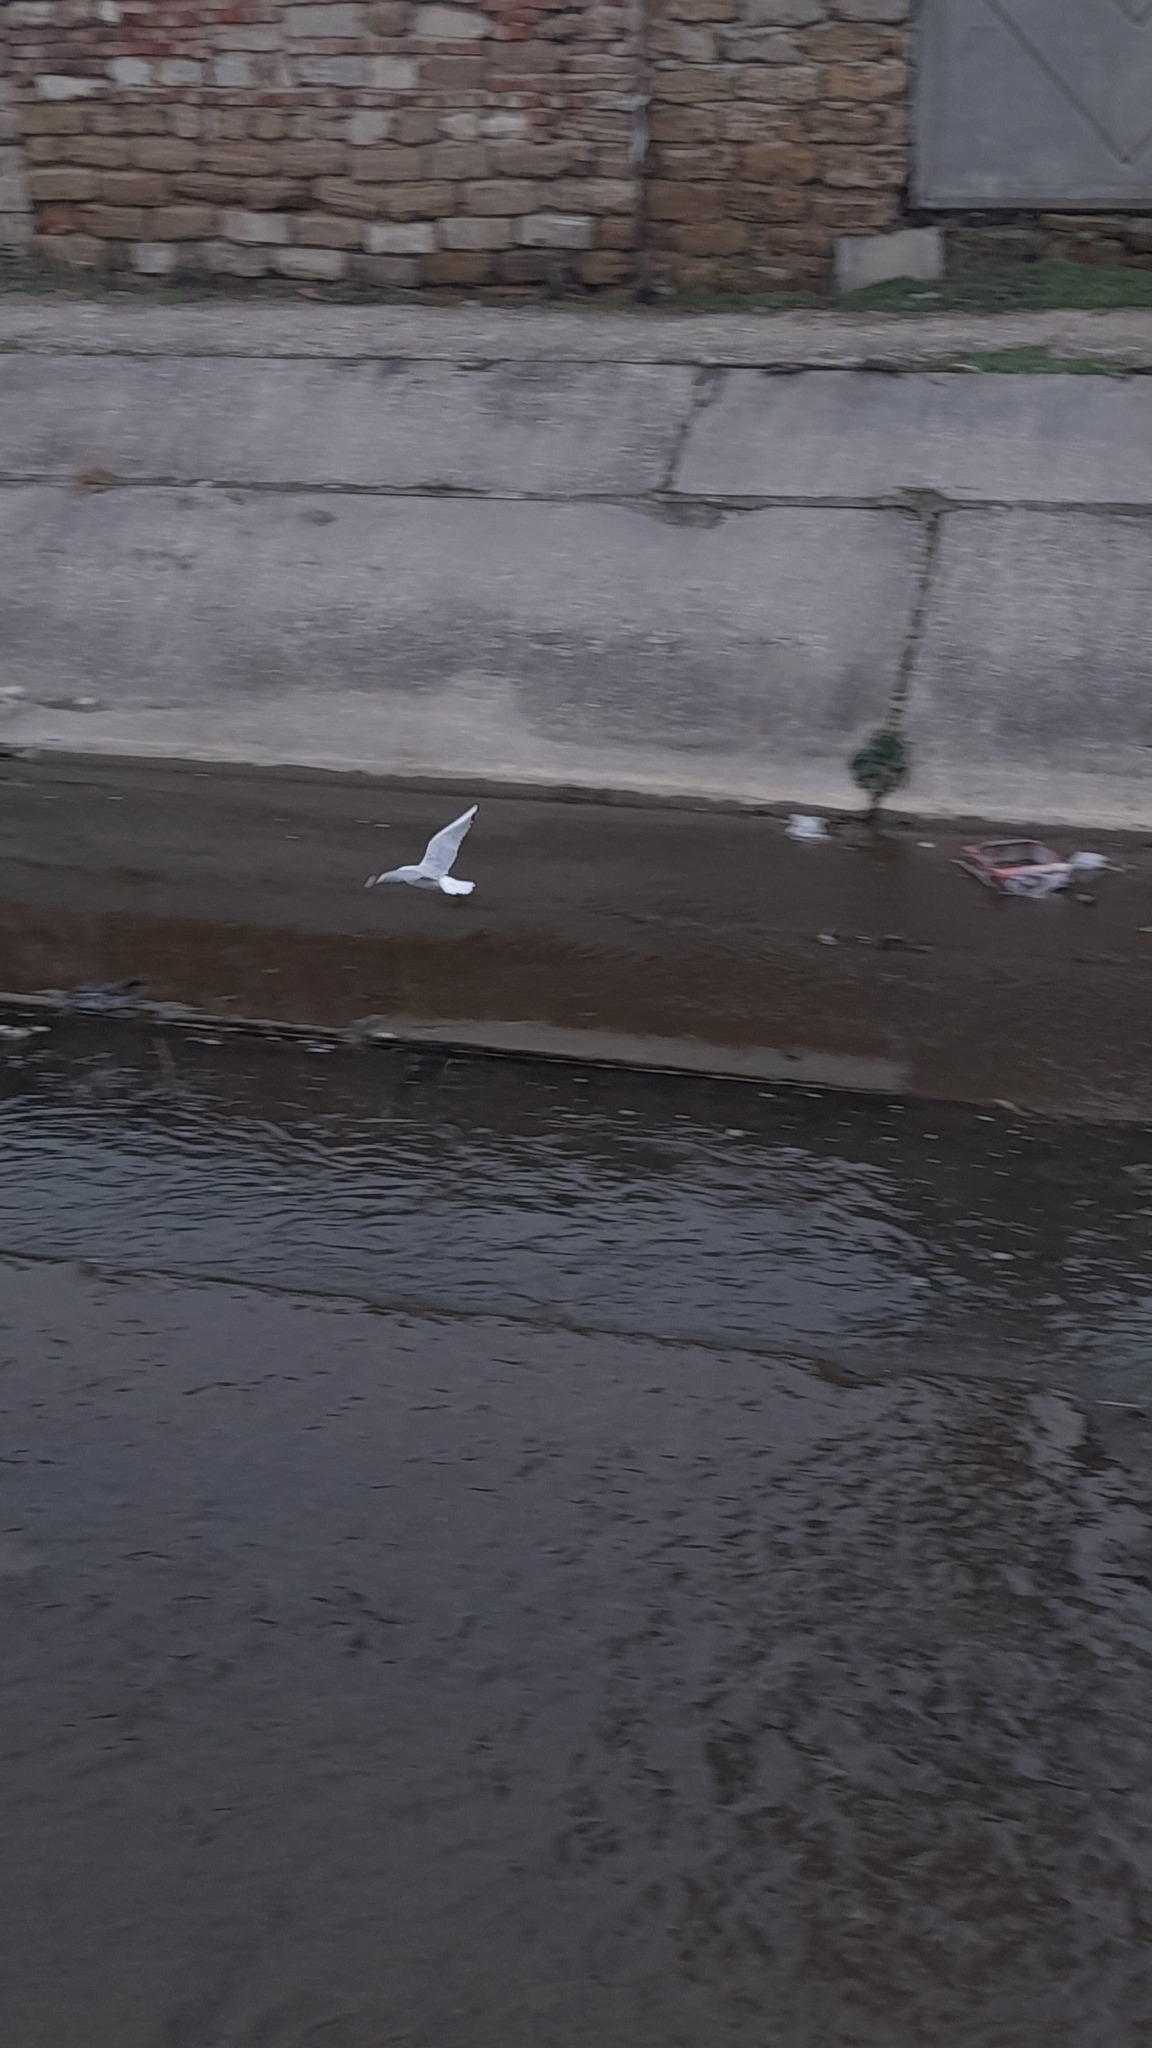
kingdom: Animalia
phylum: Chordata
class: Aves
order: Charadriiformes
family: Laridae
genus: Chroicocephalus
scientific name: Chroicocephalus ridibundus
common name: Black-headed gull
